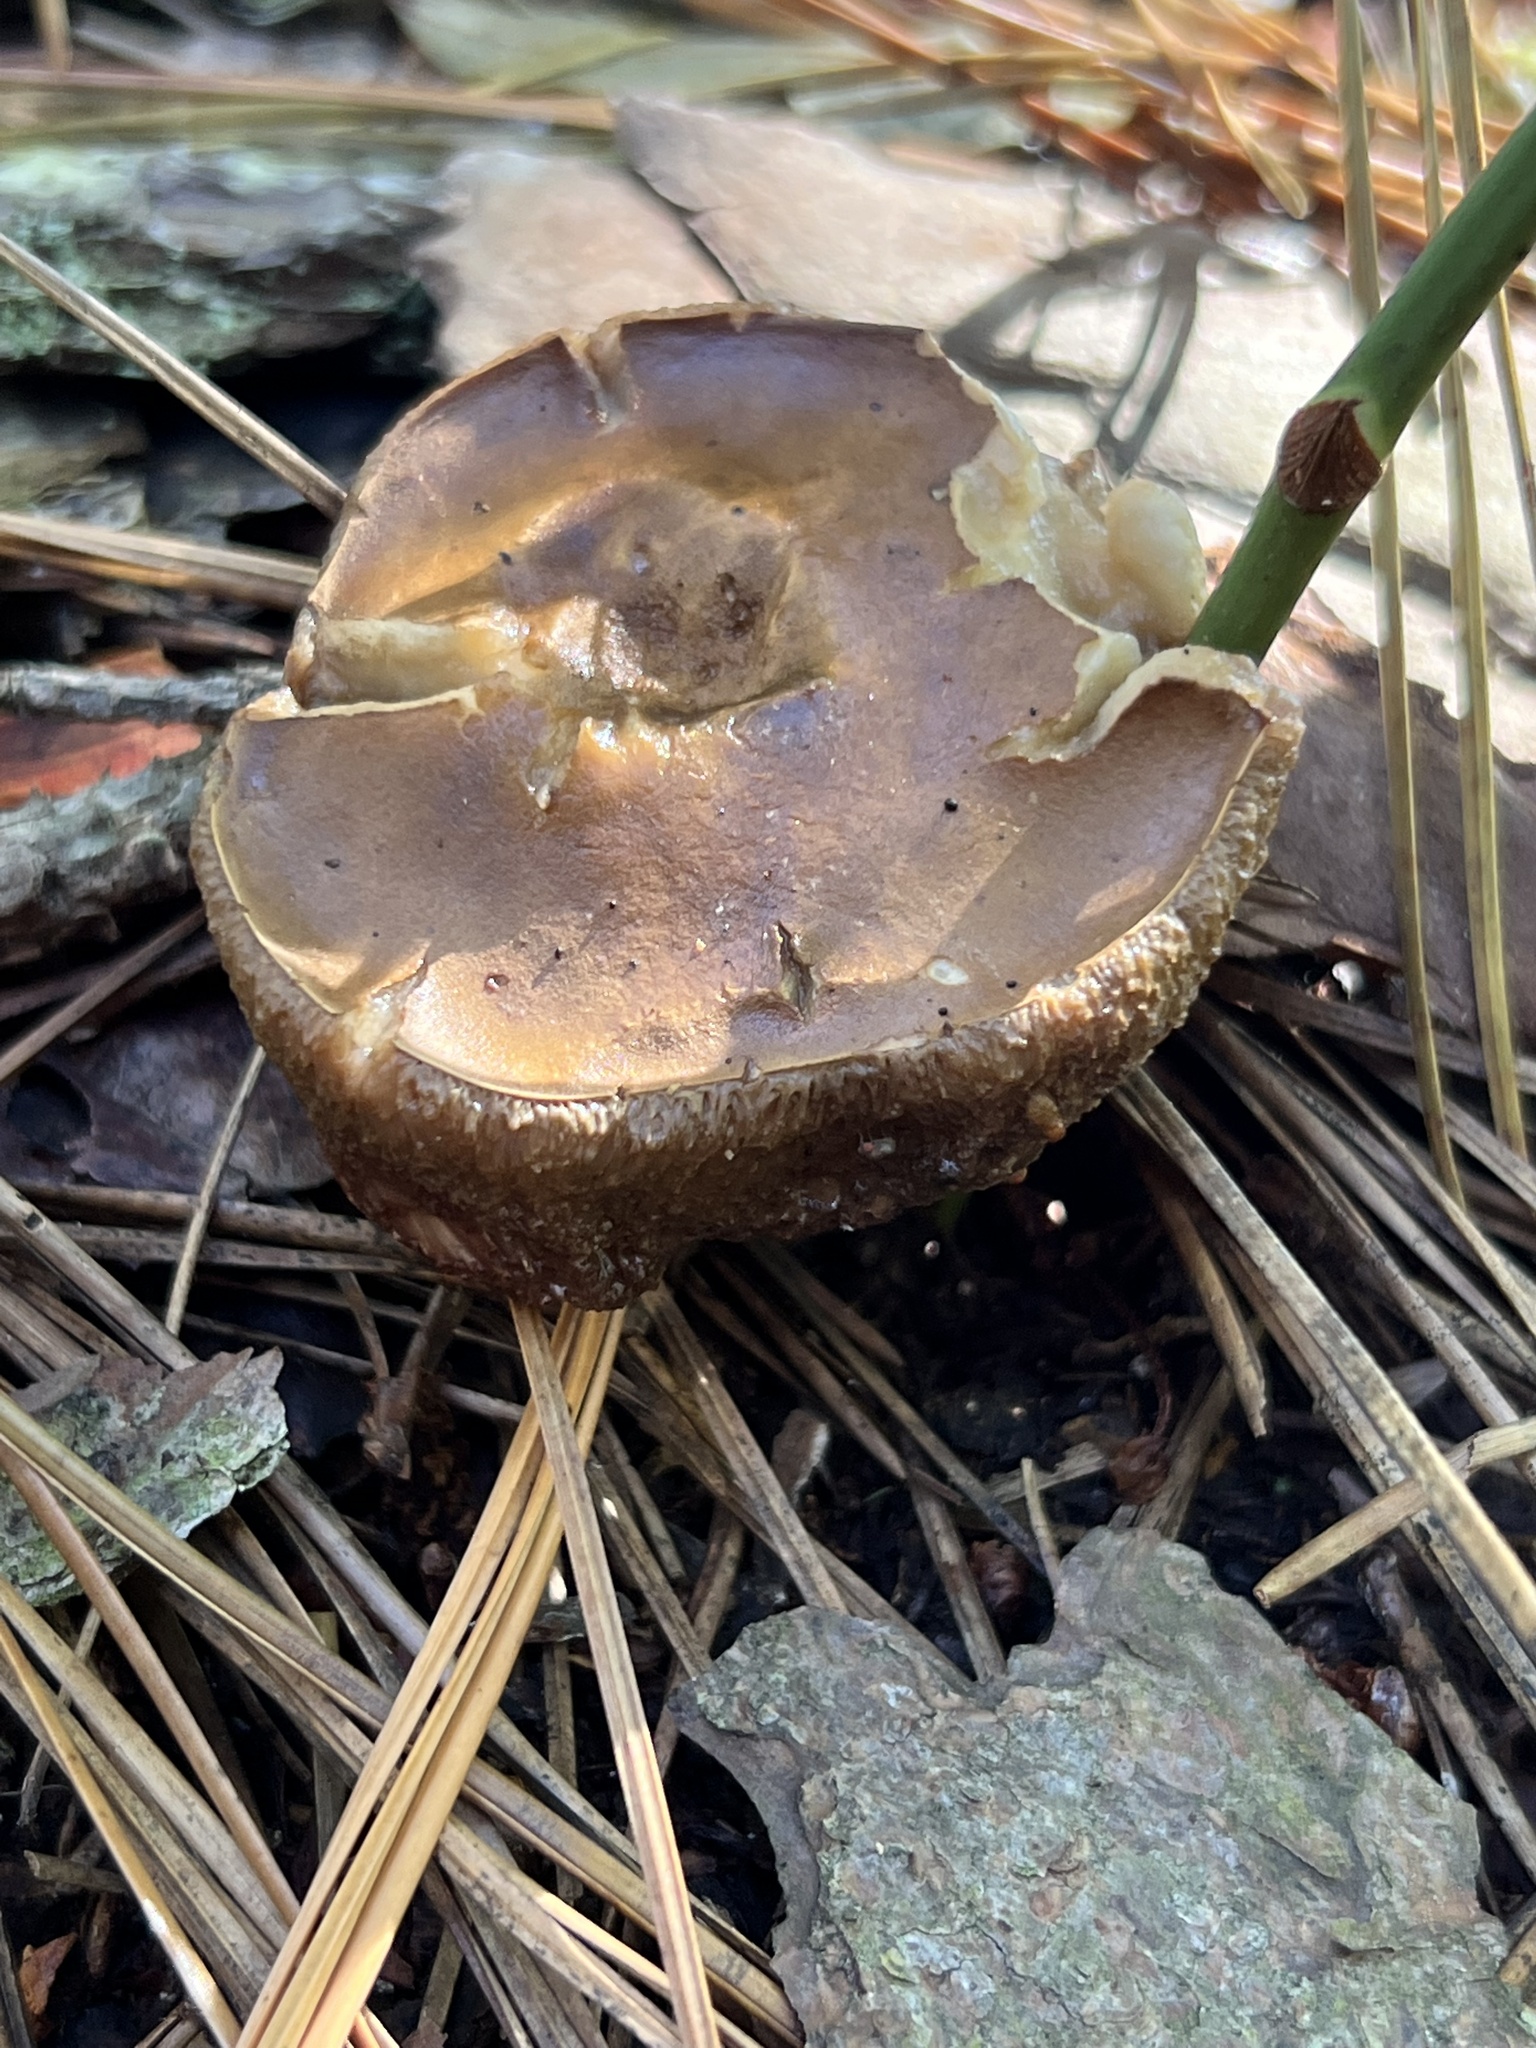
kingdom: Fungi
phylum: Basidiomycota
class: Agaricomycetes
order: Boletales
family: Boletaceae
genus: Tylopilus
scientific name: Tylopilus felleus
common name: Bitter bolete
